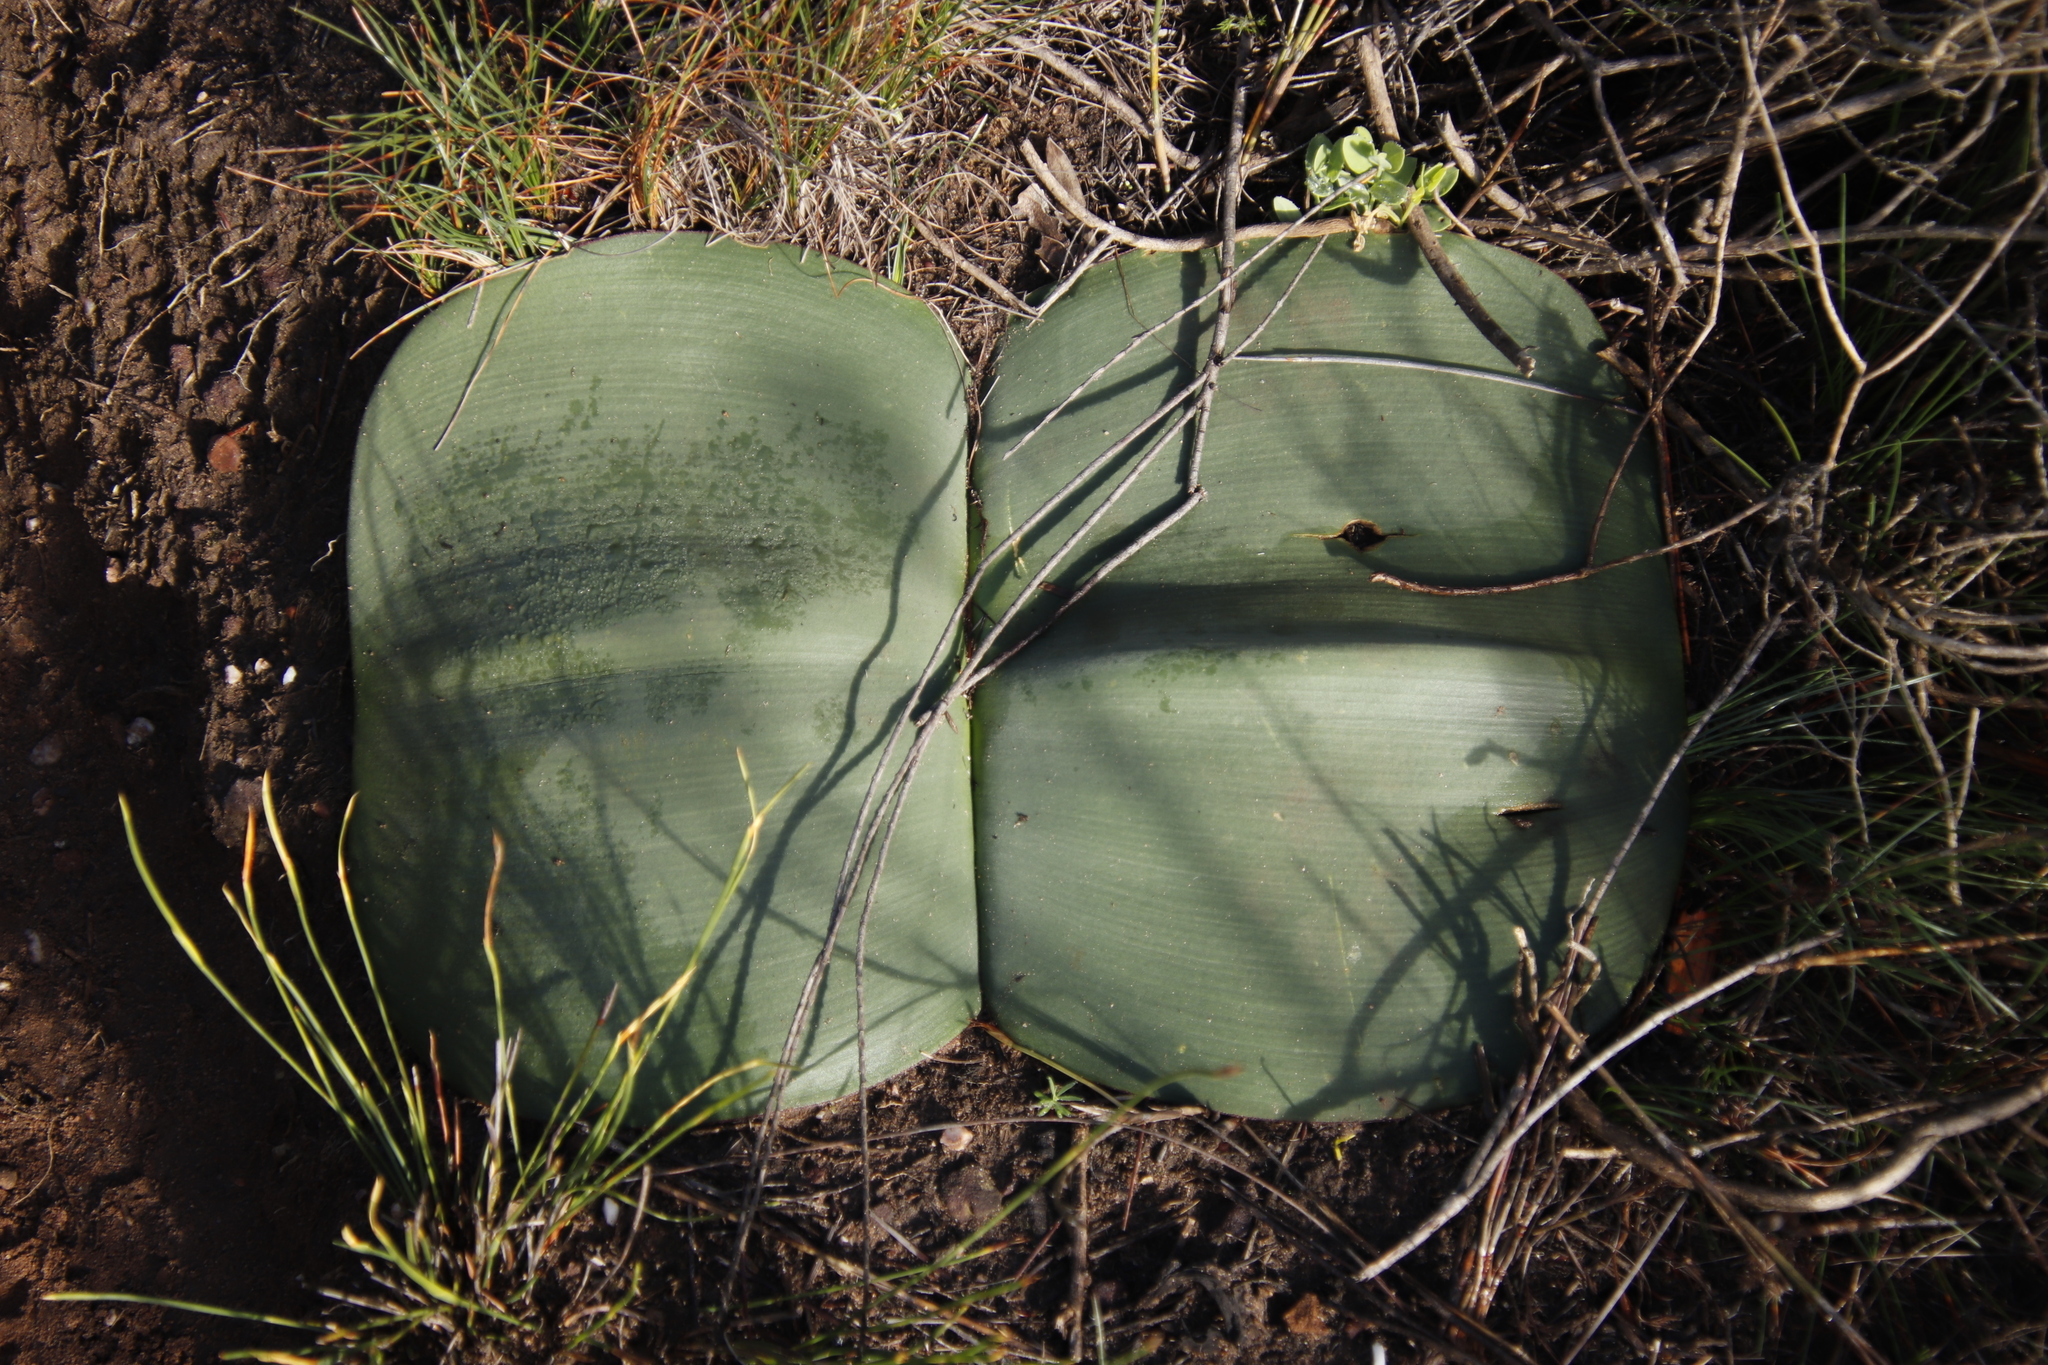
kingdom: Plantae
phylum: Tracheophyta
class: Liliopsida
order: Asparagales
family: Amaryllidaceae
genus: Haemanthus
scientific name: Haemanthus sanguineus
